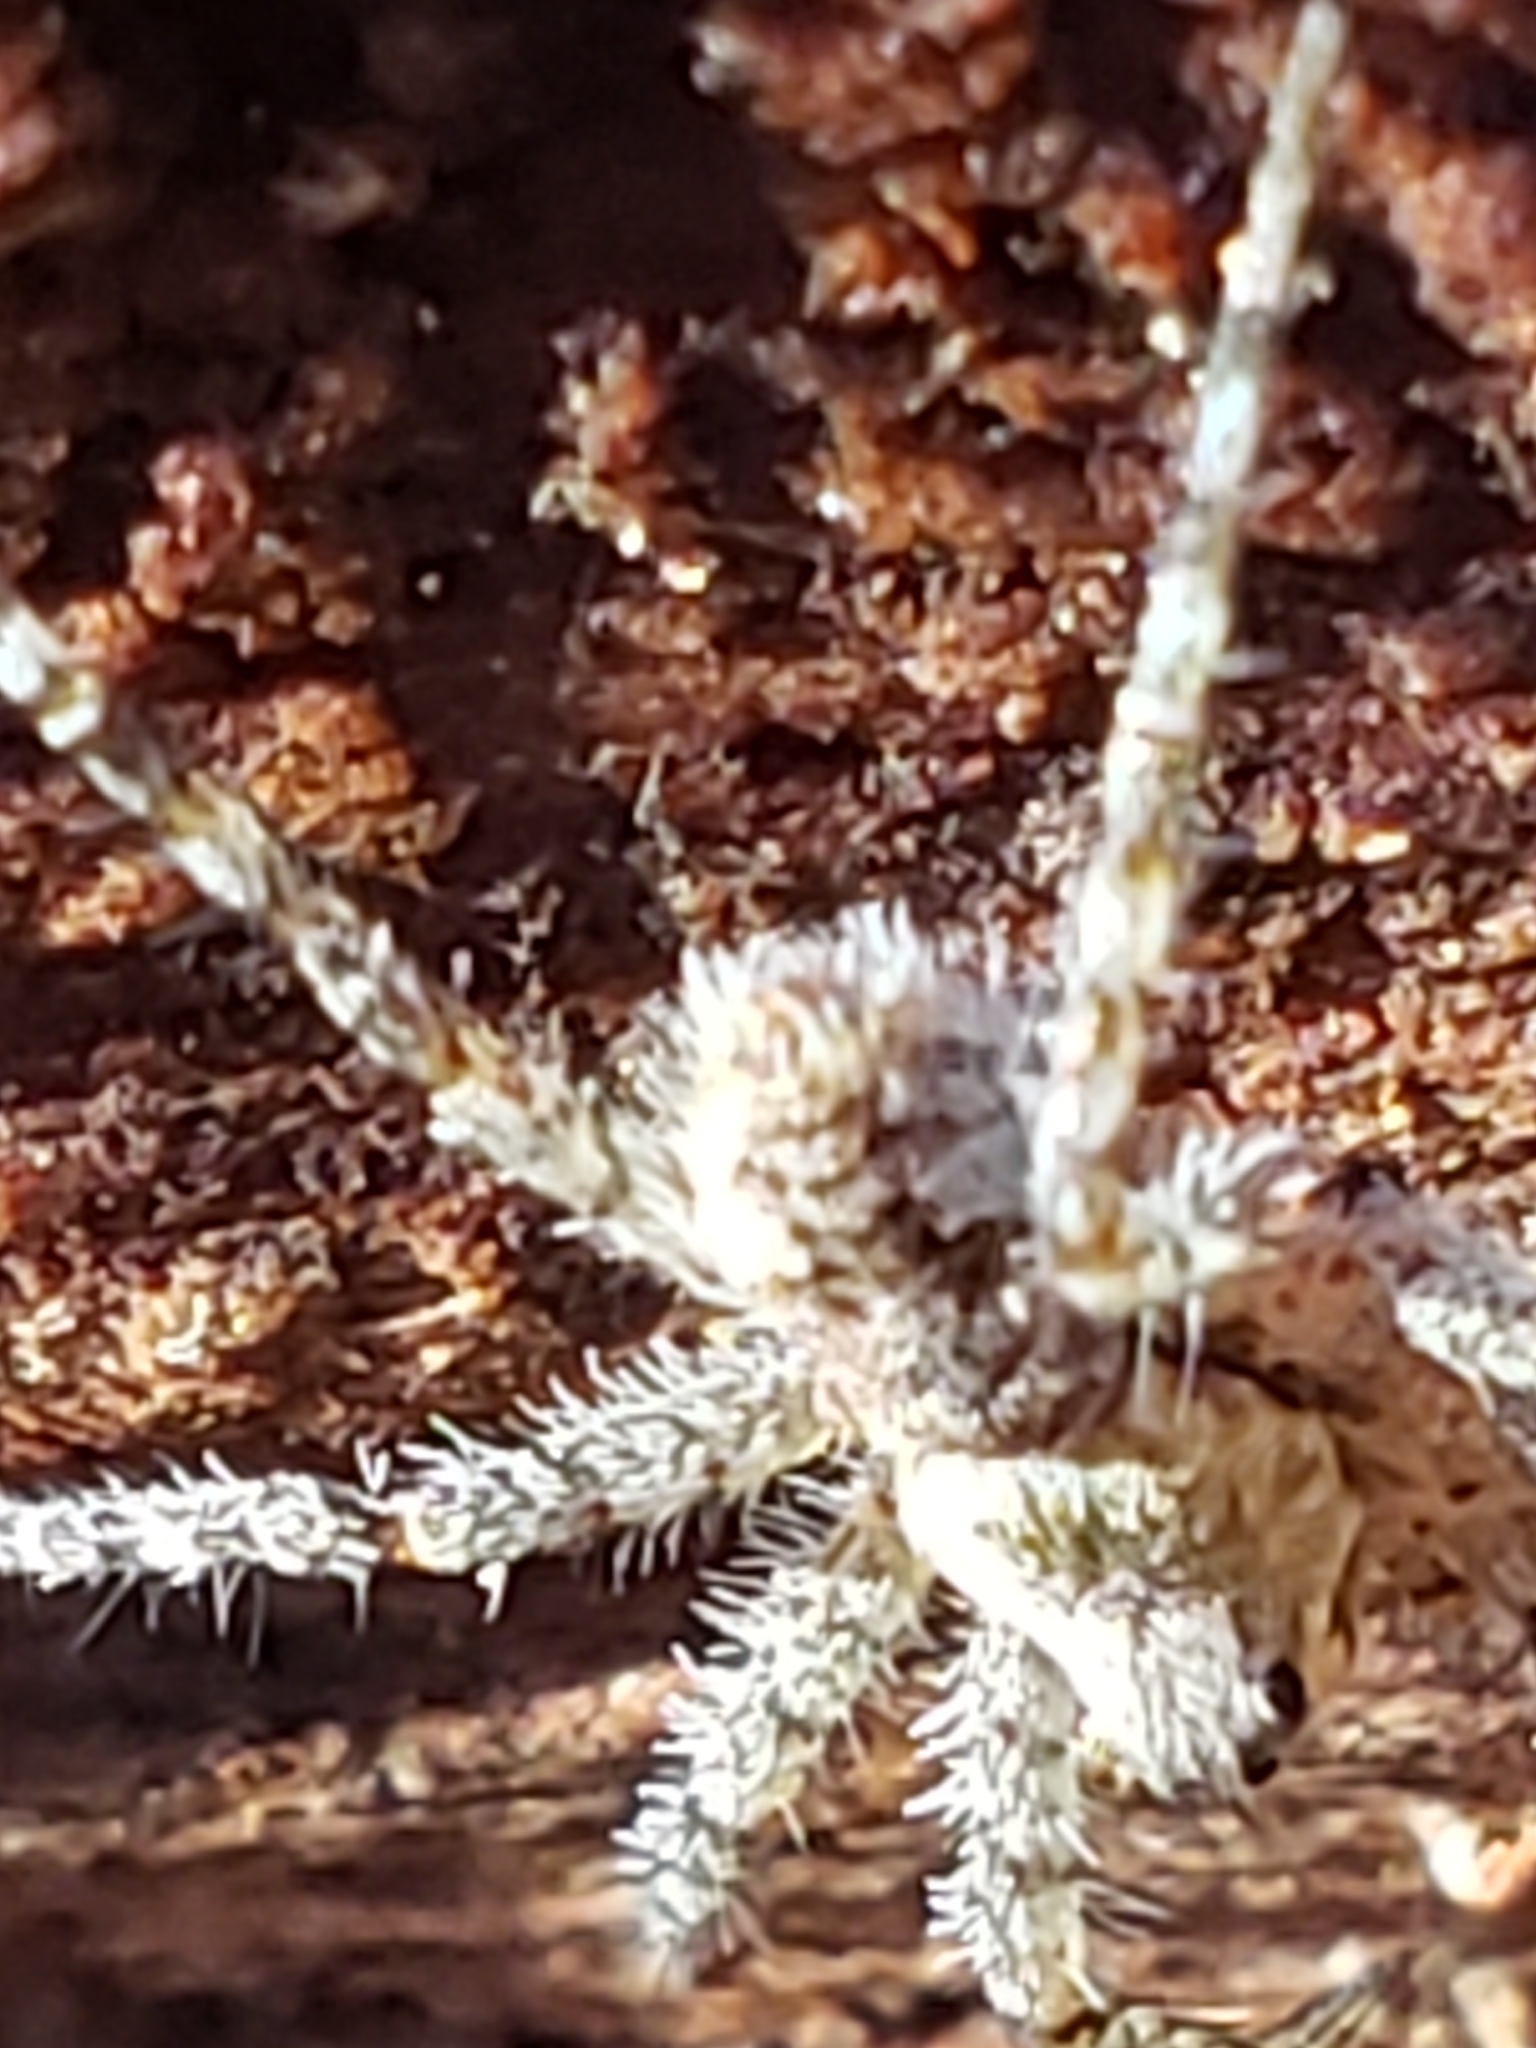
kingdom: Animalia
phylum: Arthropoda
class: Arachnida
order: Araneae
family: Pisauridae
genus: Dolomedes
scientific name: Dolomedes albineus
